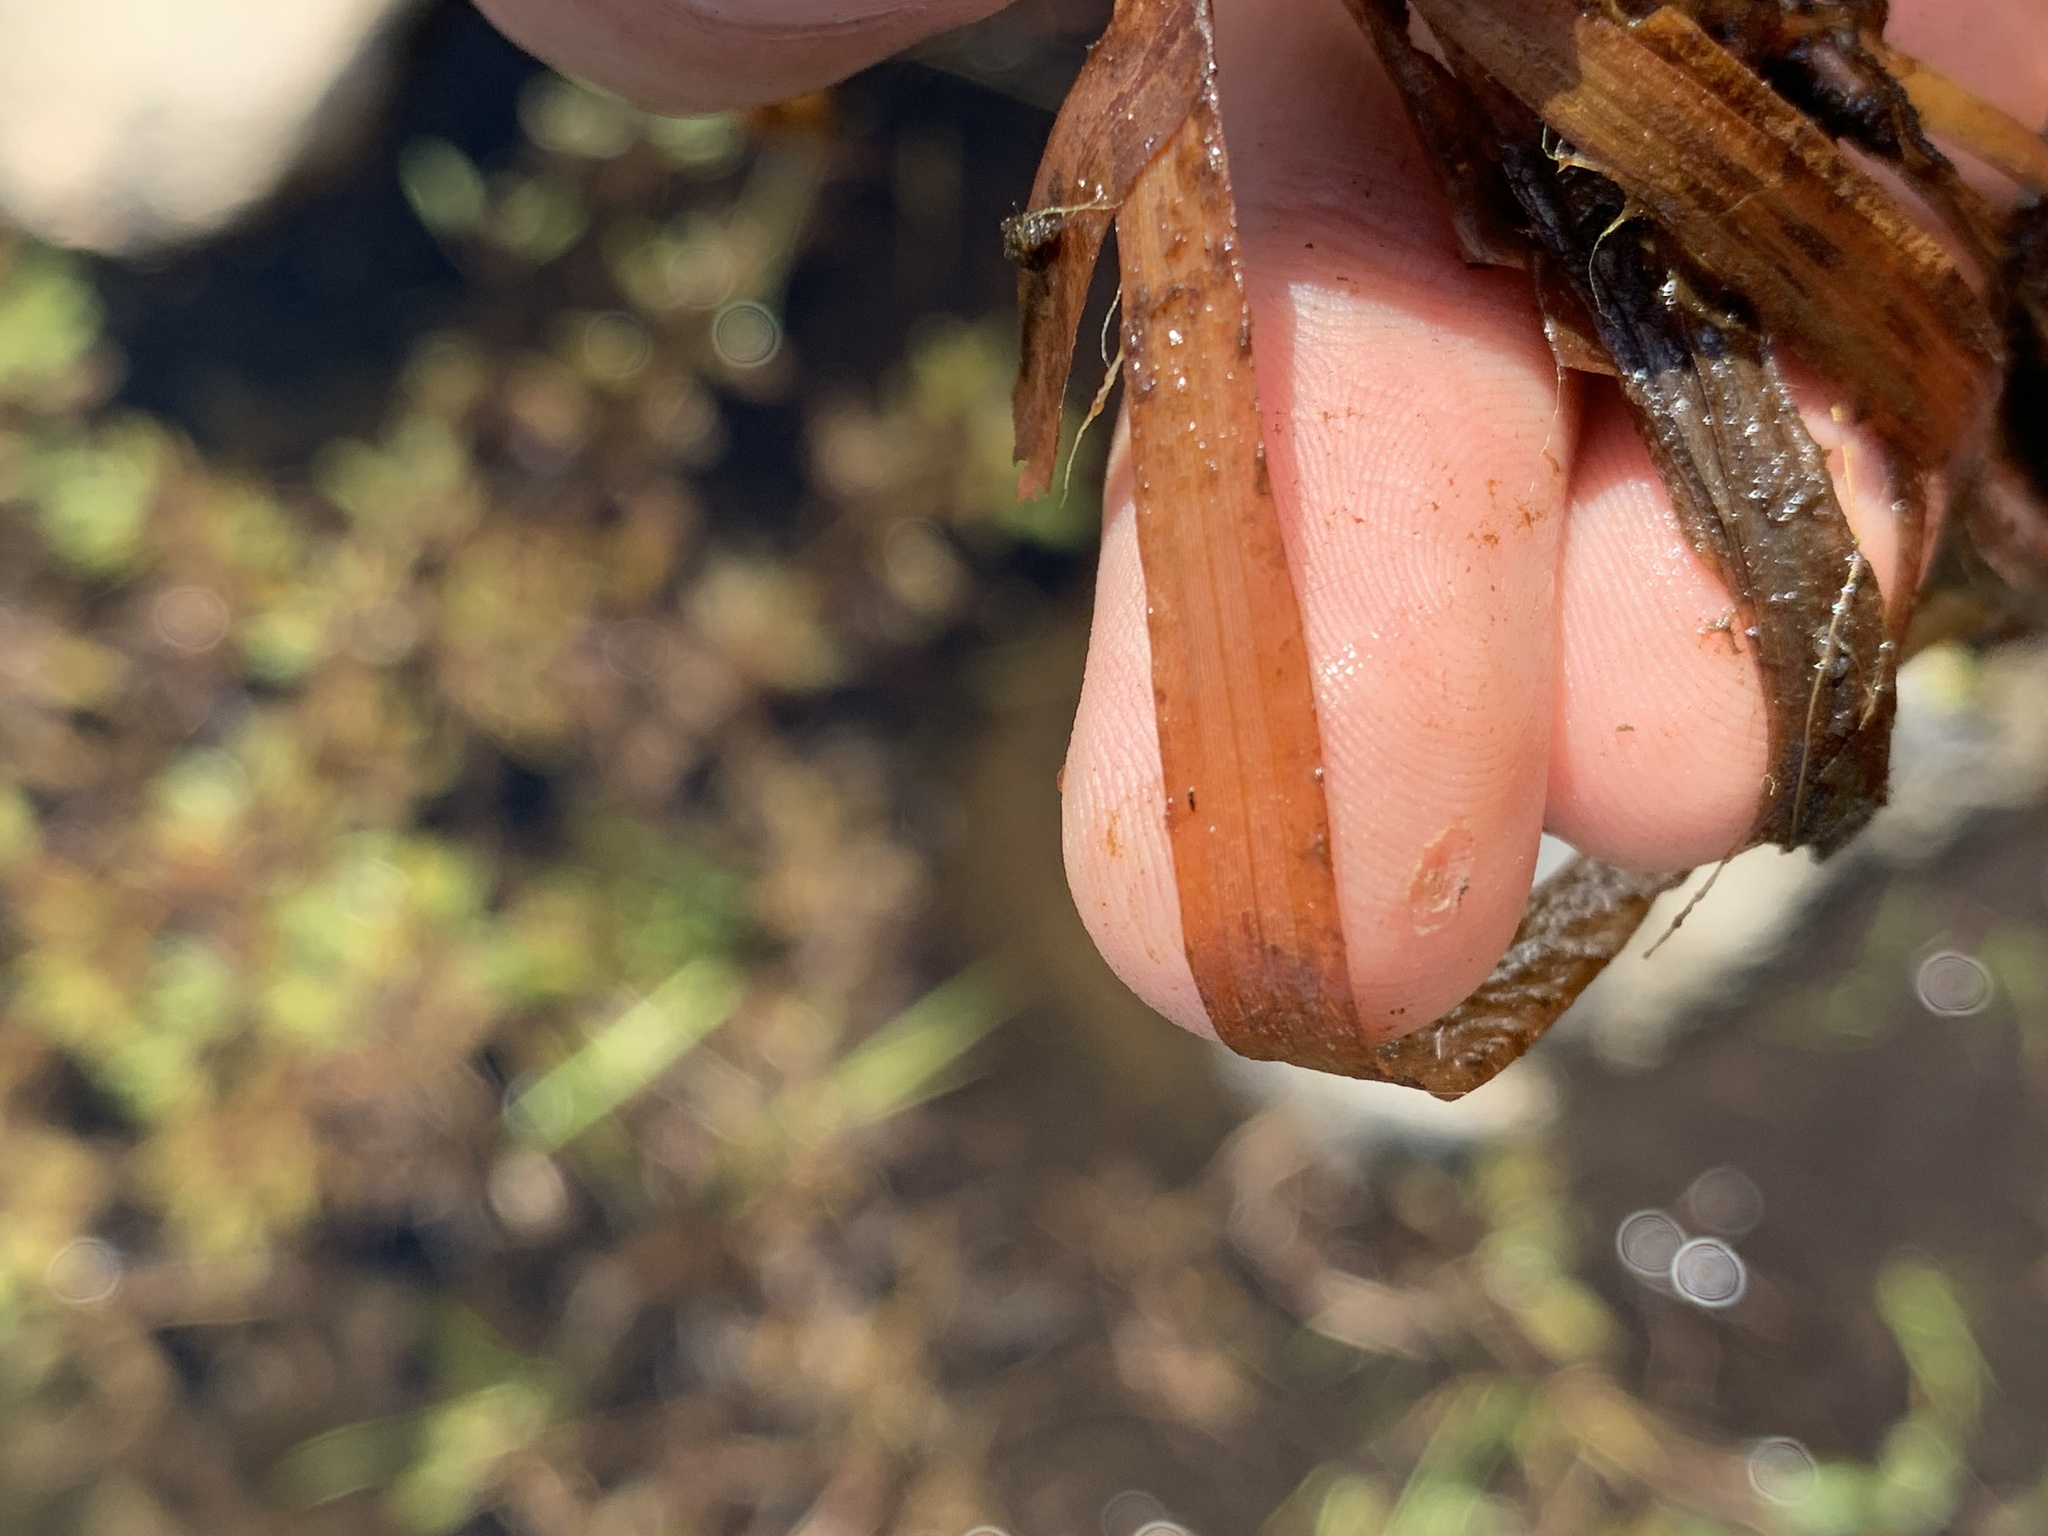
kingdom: Plantae
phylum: Tracheophyta
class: Liliopsida
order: Alismatales
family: Potamogetonaceae
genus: Potamogeton
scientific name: Potamogeton epihydrus
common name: American pondweed
